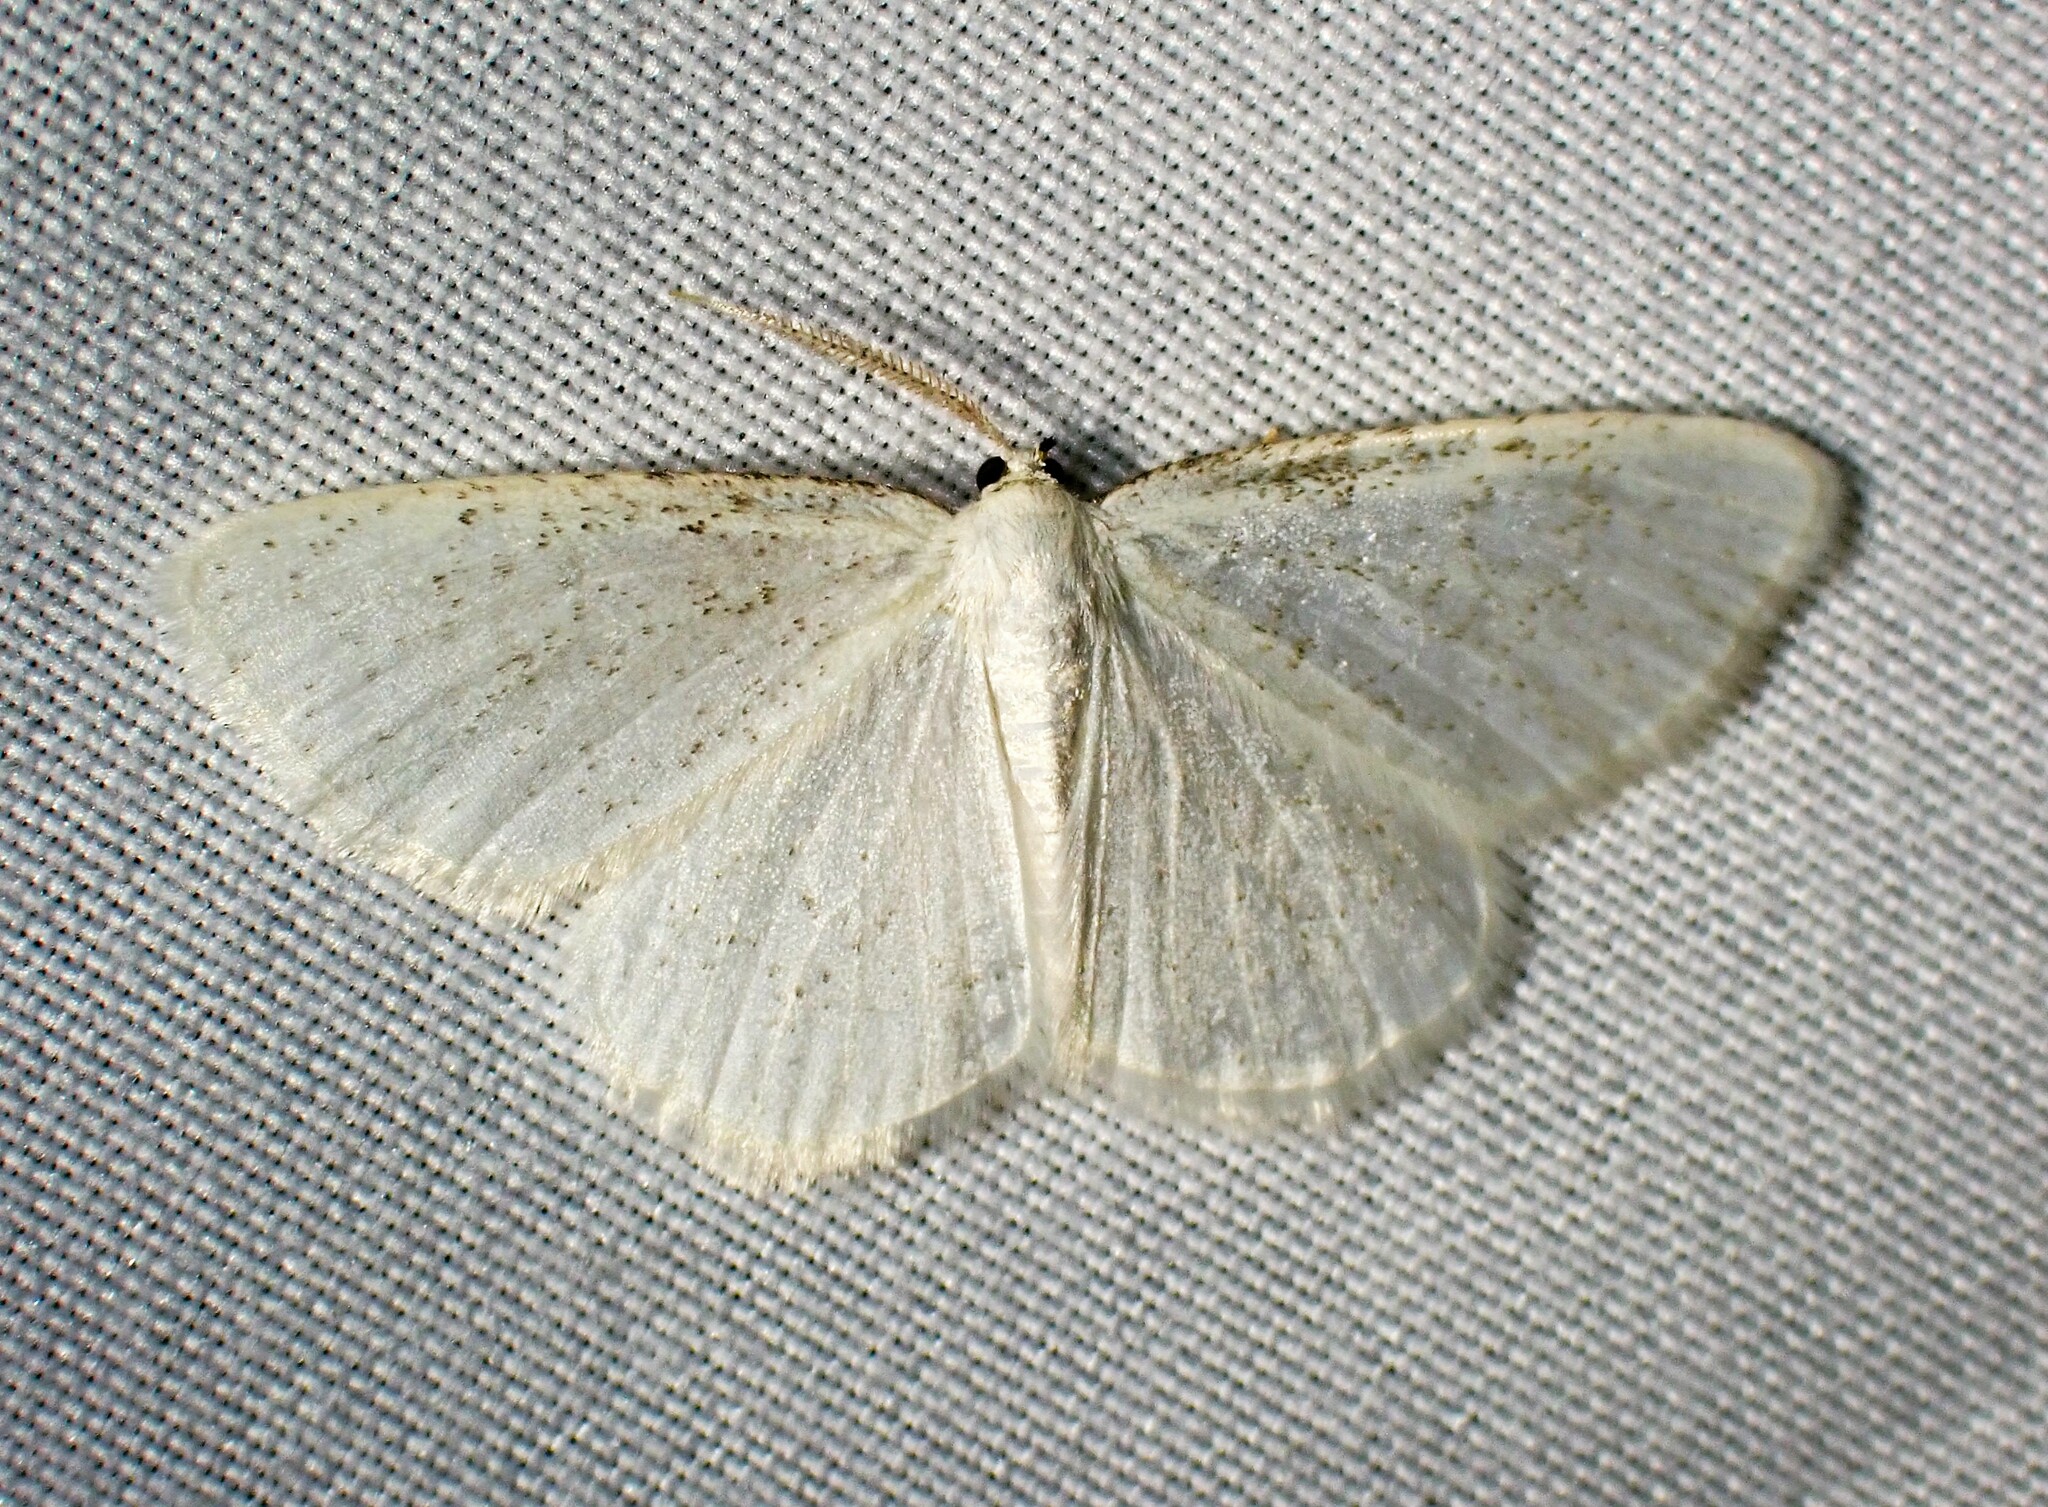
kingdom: Animalia
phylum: Arthropoda
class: Insecta
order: Lepidoptera
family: Geometridae
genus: Protitame
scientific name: Protitame virginalis
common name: Virgin moth
